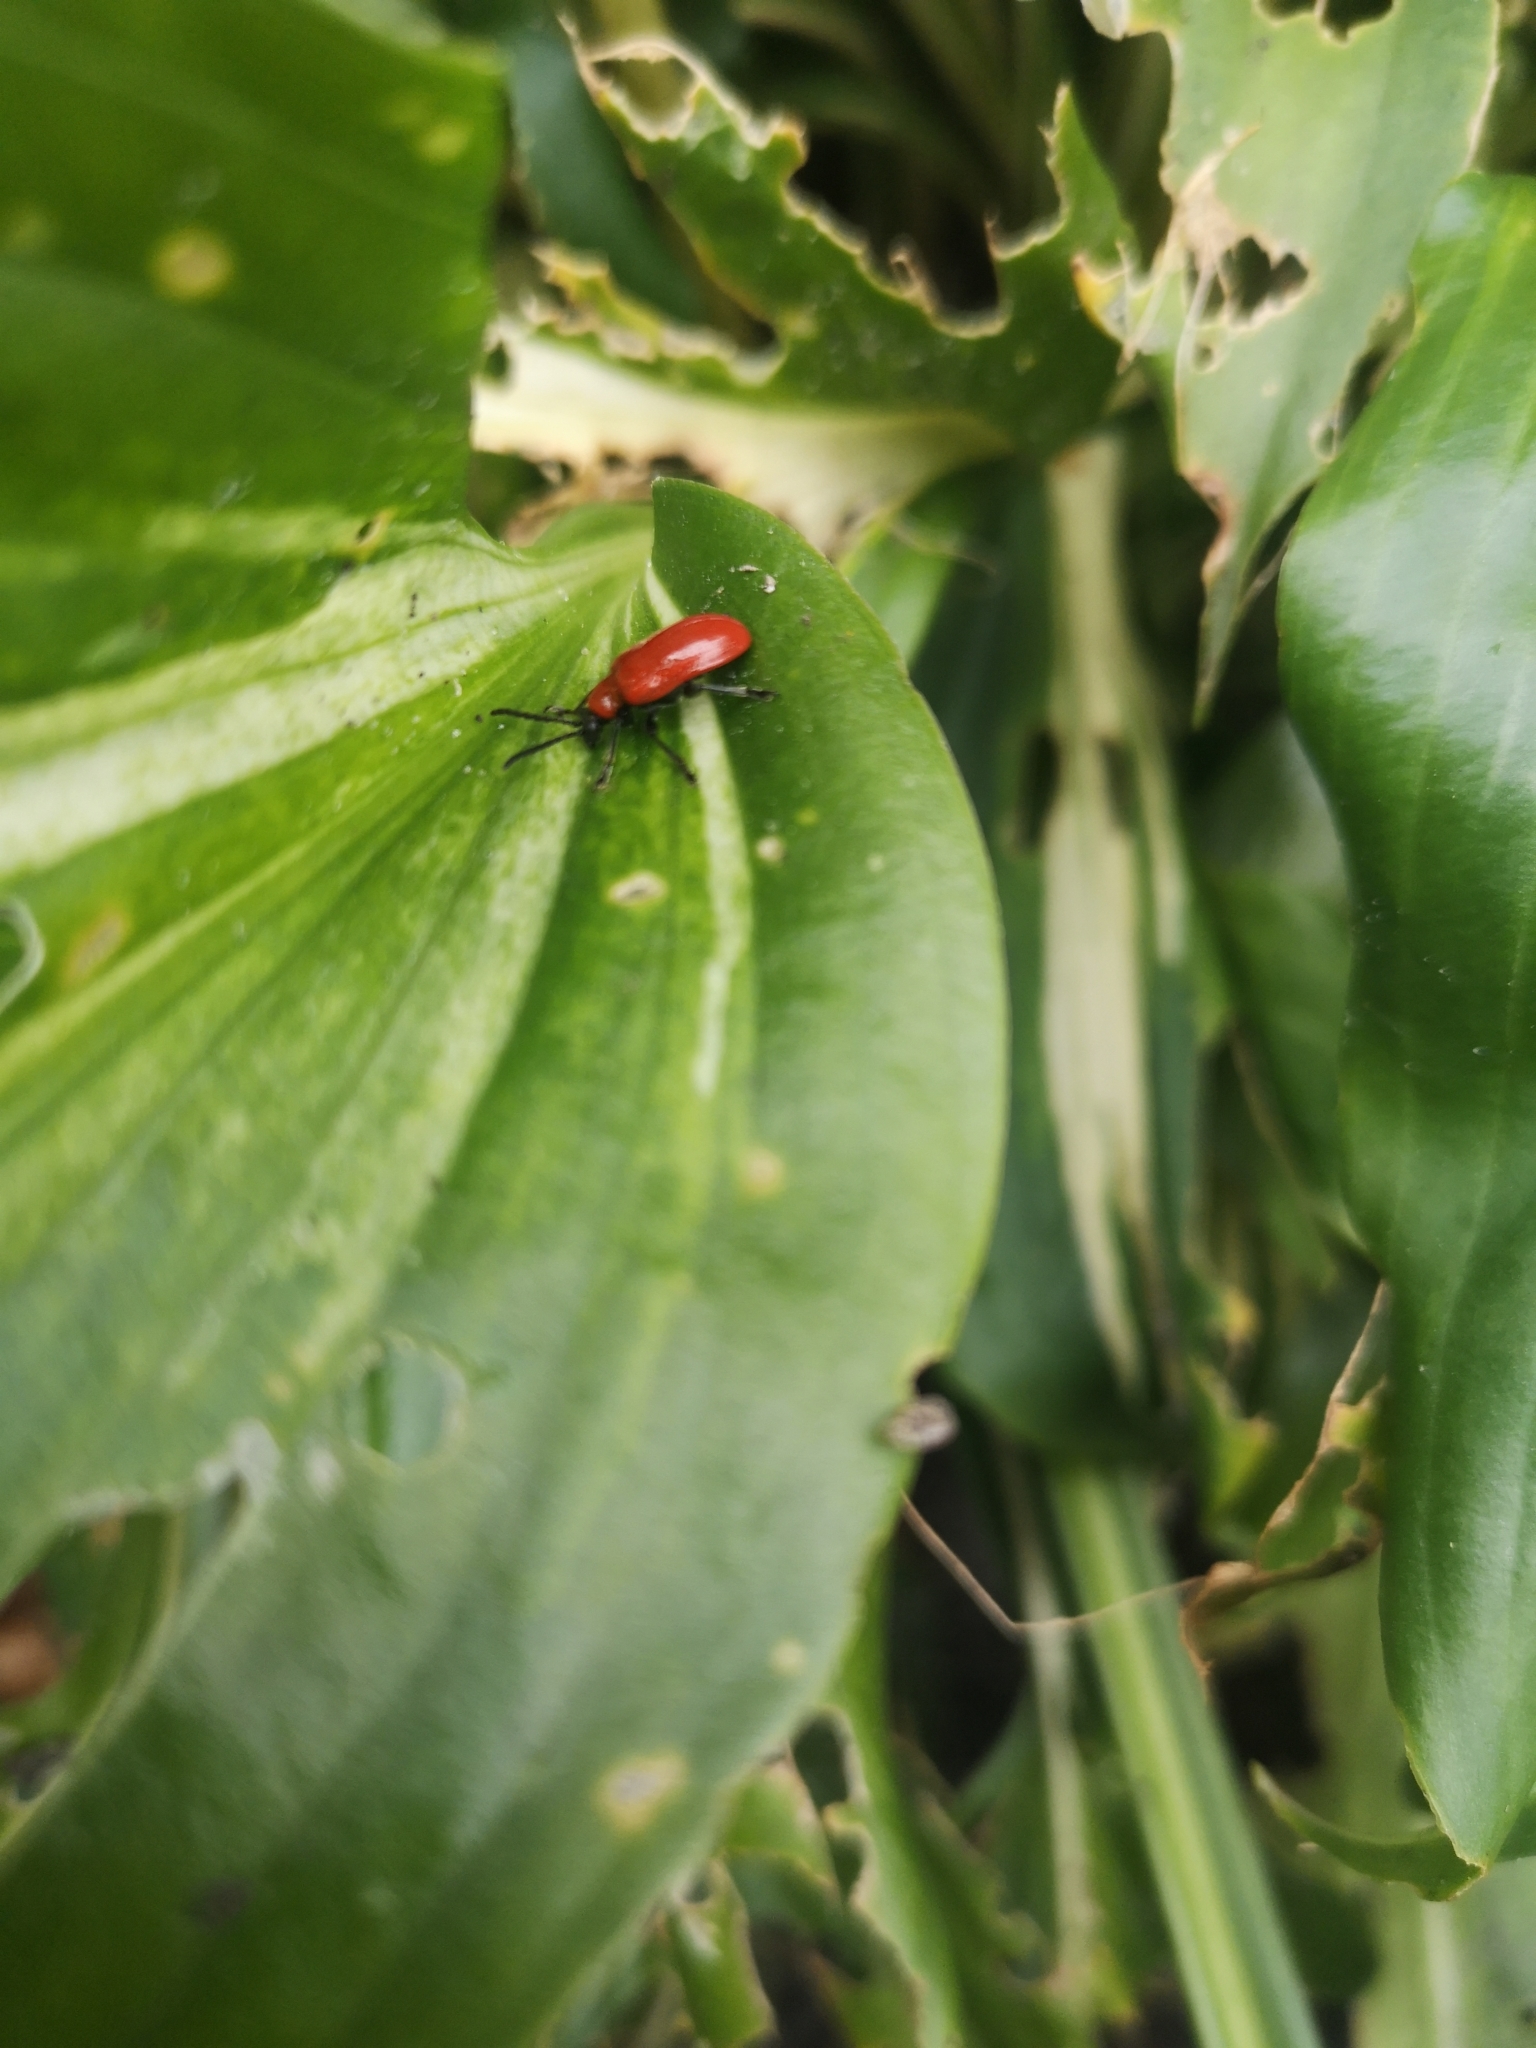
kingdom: Animalia
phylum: Arthropoda
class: Insecta
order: Coleoptera
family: Chrysomelidae
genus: Lilioceris
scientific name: Lilioceris lilii
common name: Lily beetle
